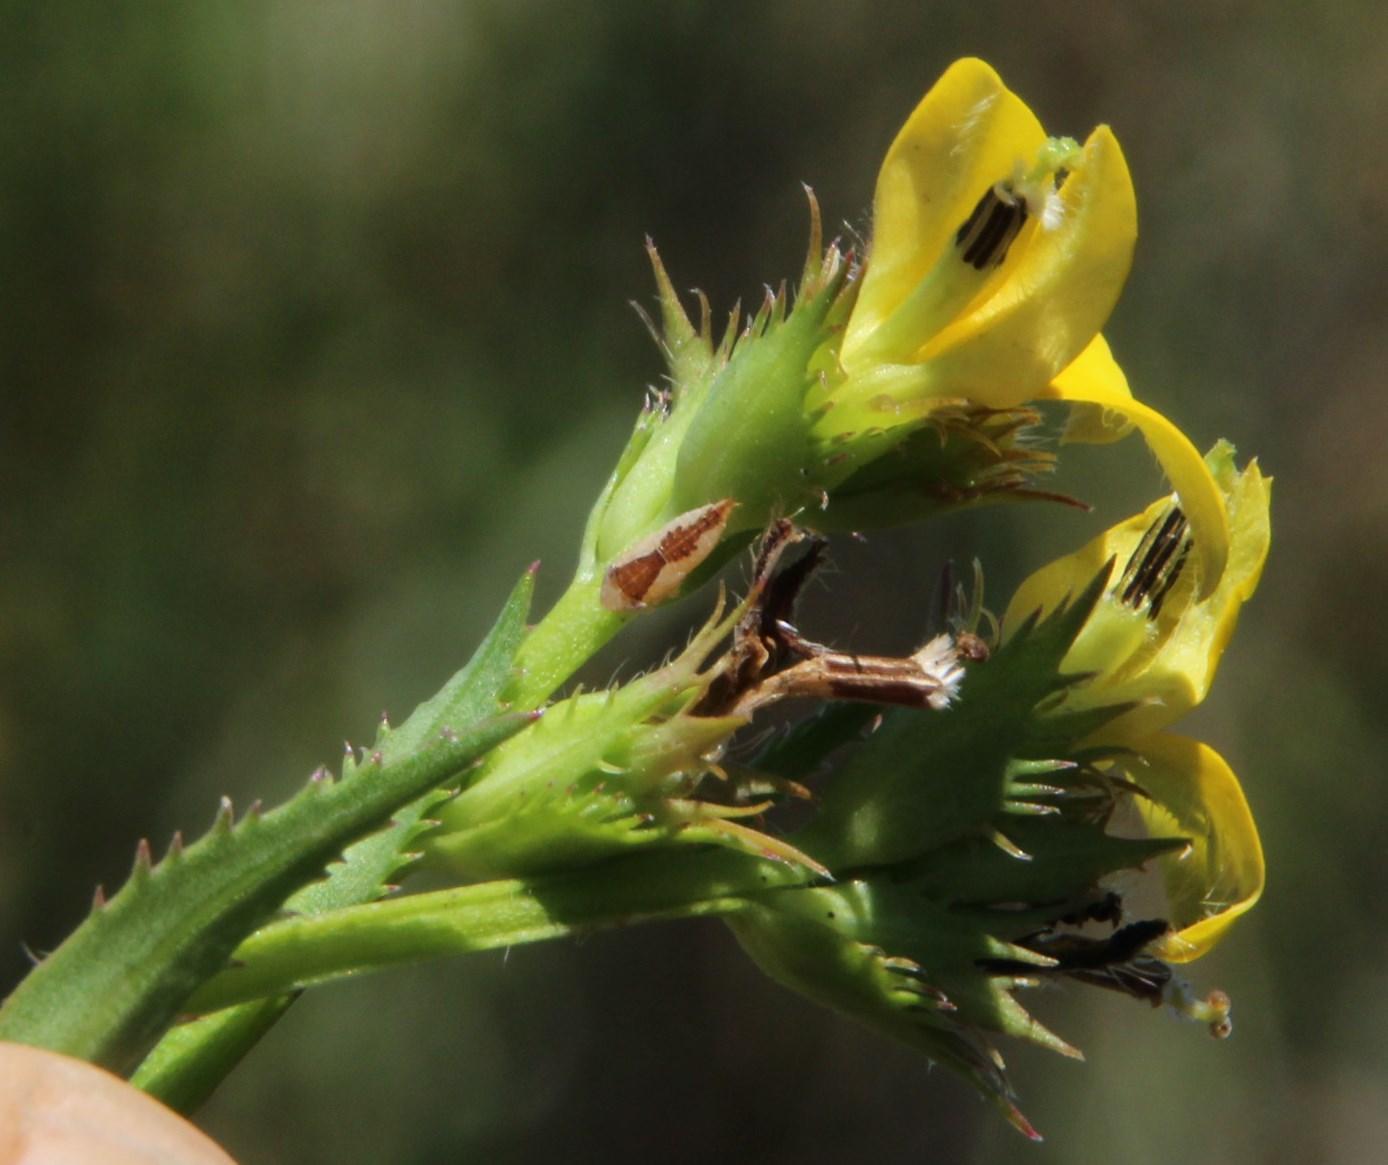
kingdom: Plantae
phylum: Tracheophyta
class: Magnoliopsida
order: Asterales
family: Campanulaceae
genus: Monopsis
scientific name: Monopsis lutea
